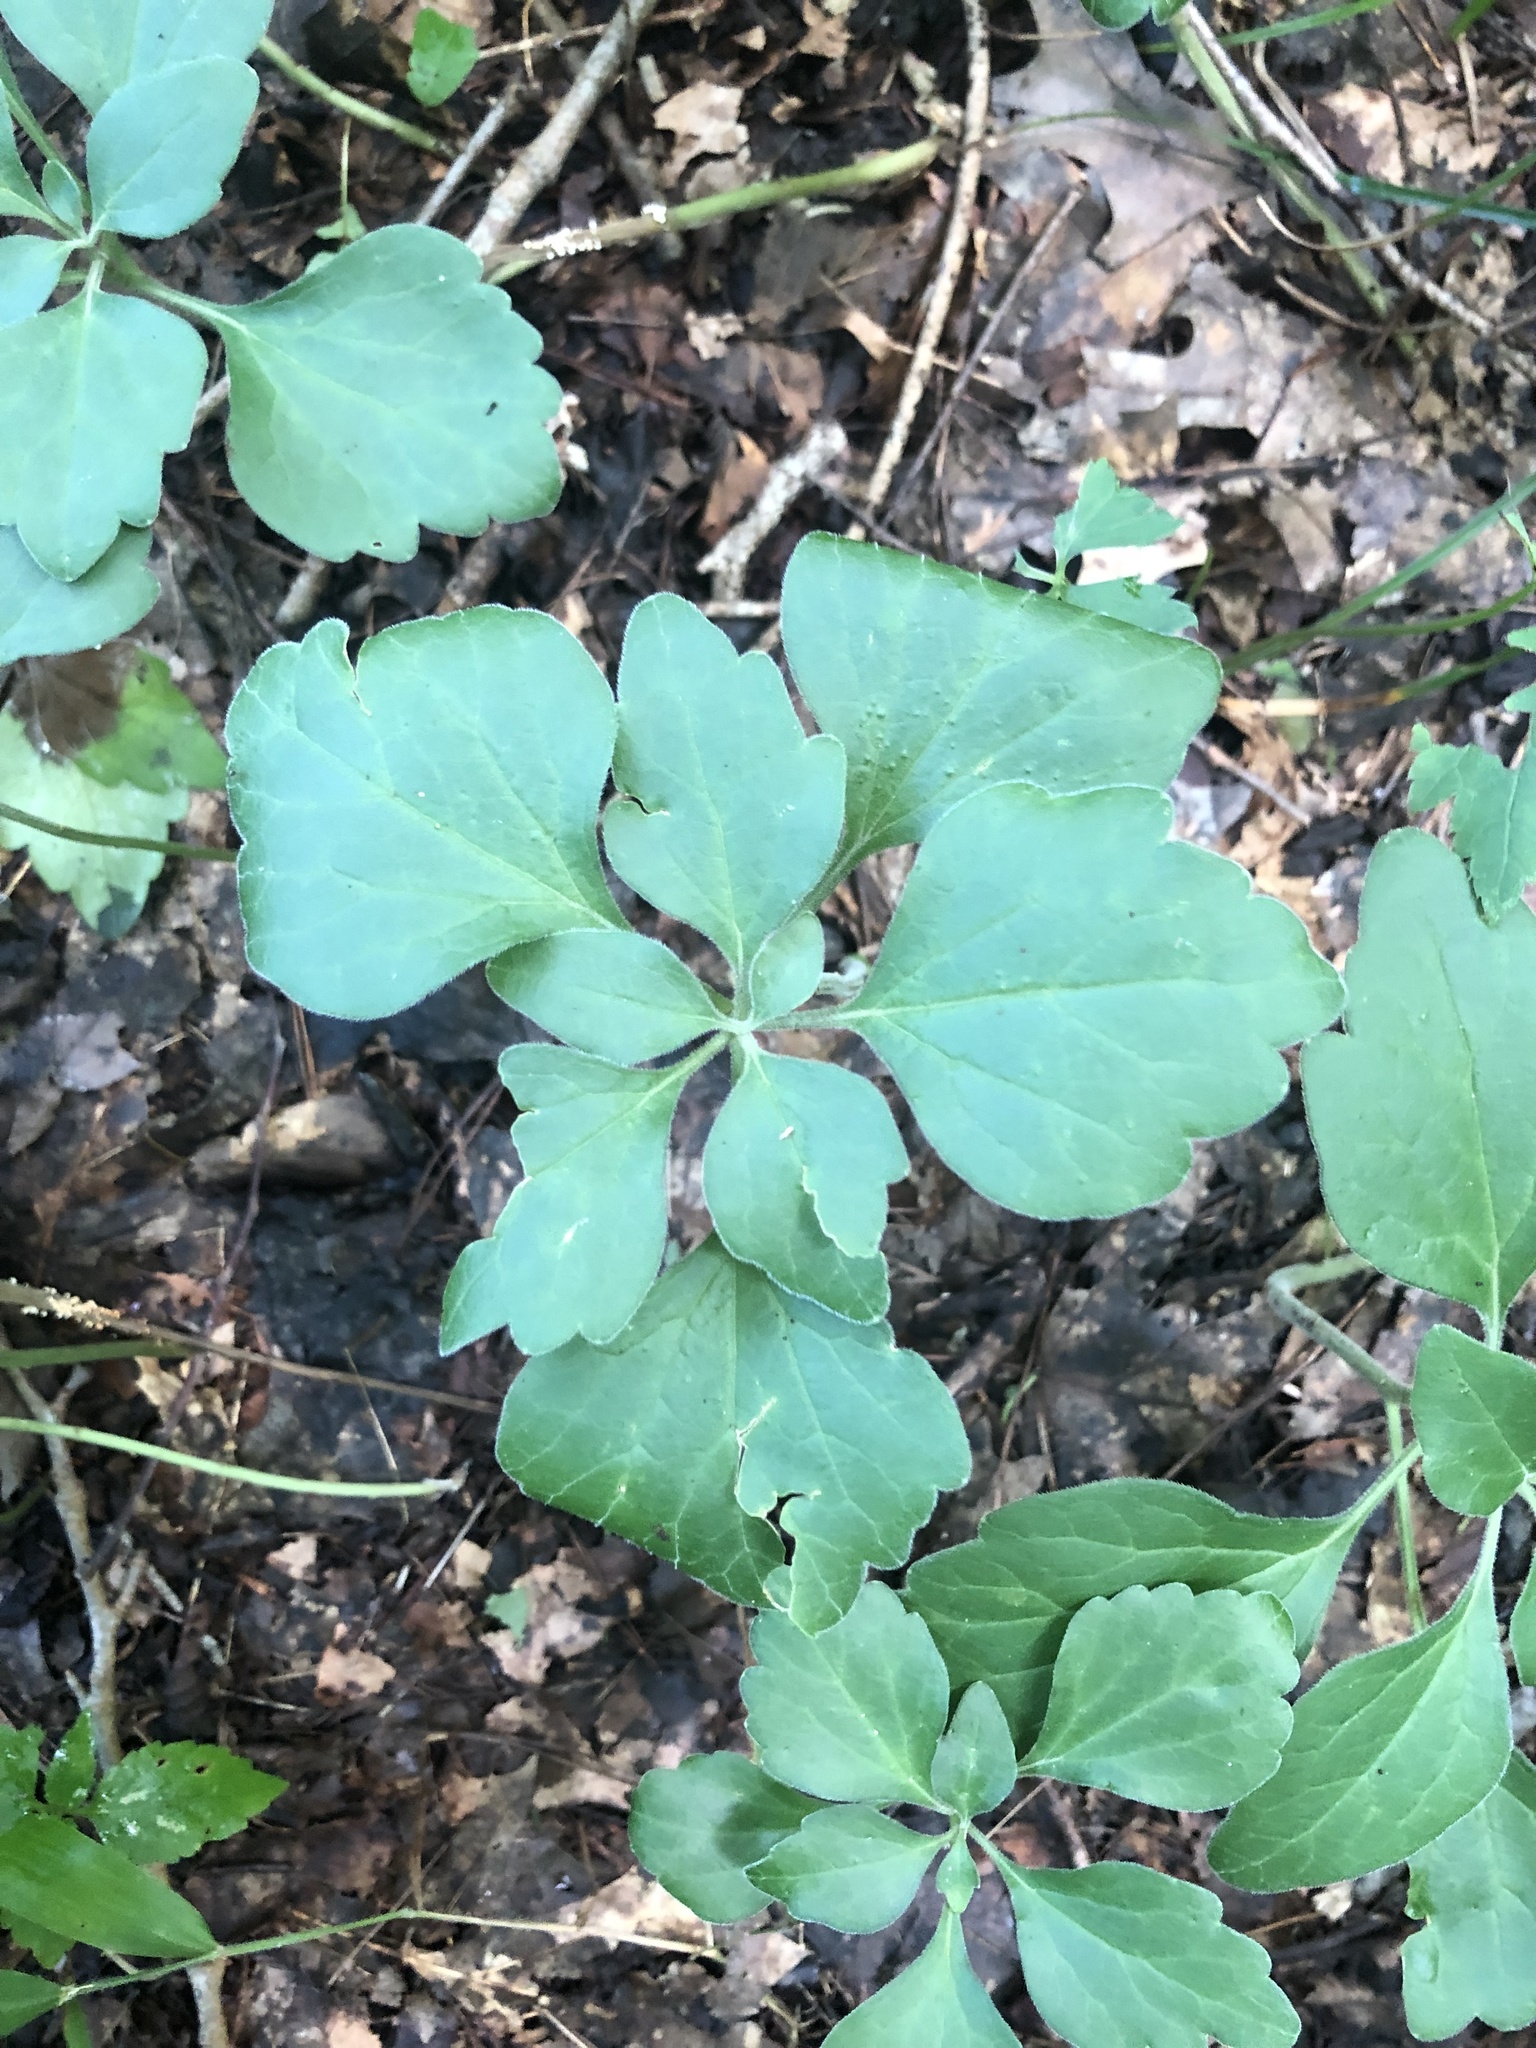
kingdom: Plantae
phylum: Tracheophyta
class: Magnoliopsida
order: Buxales
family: Buxaceae
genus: Pachysandra
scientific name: Pachysandra procumbens
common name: Mountain-spurge
